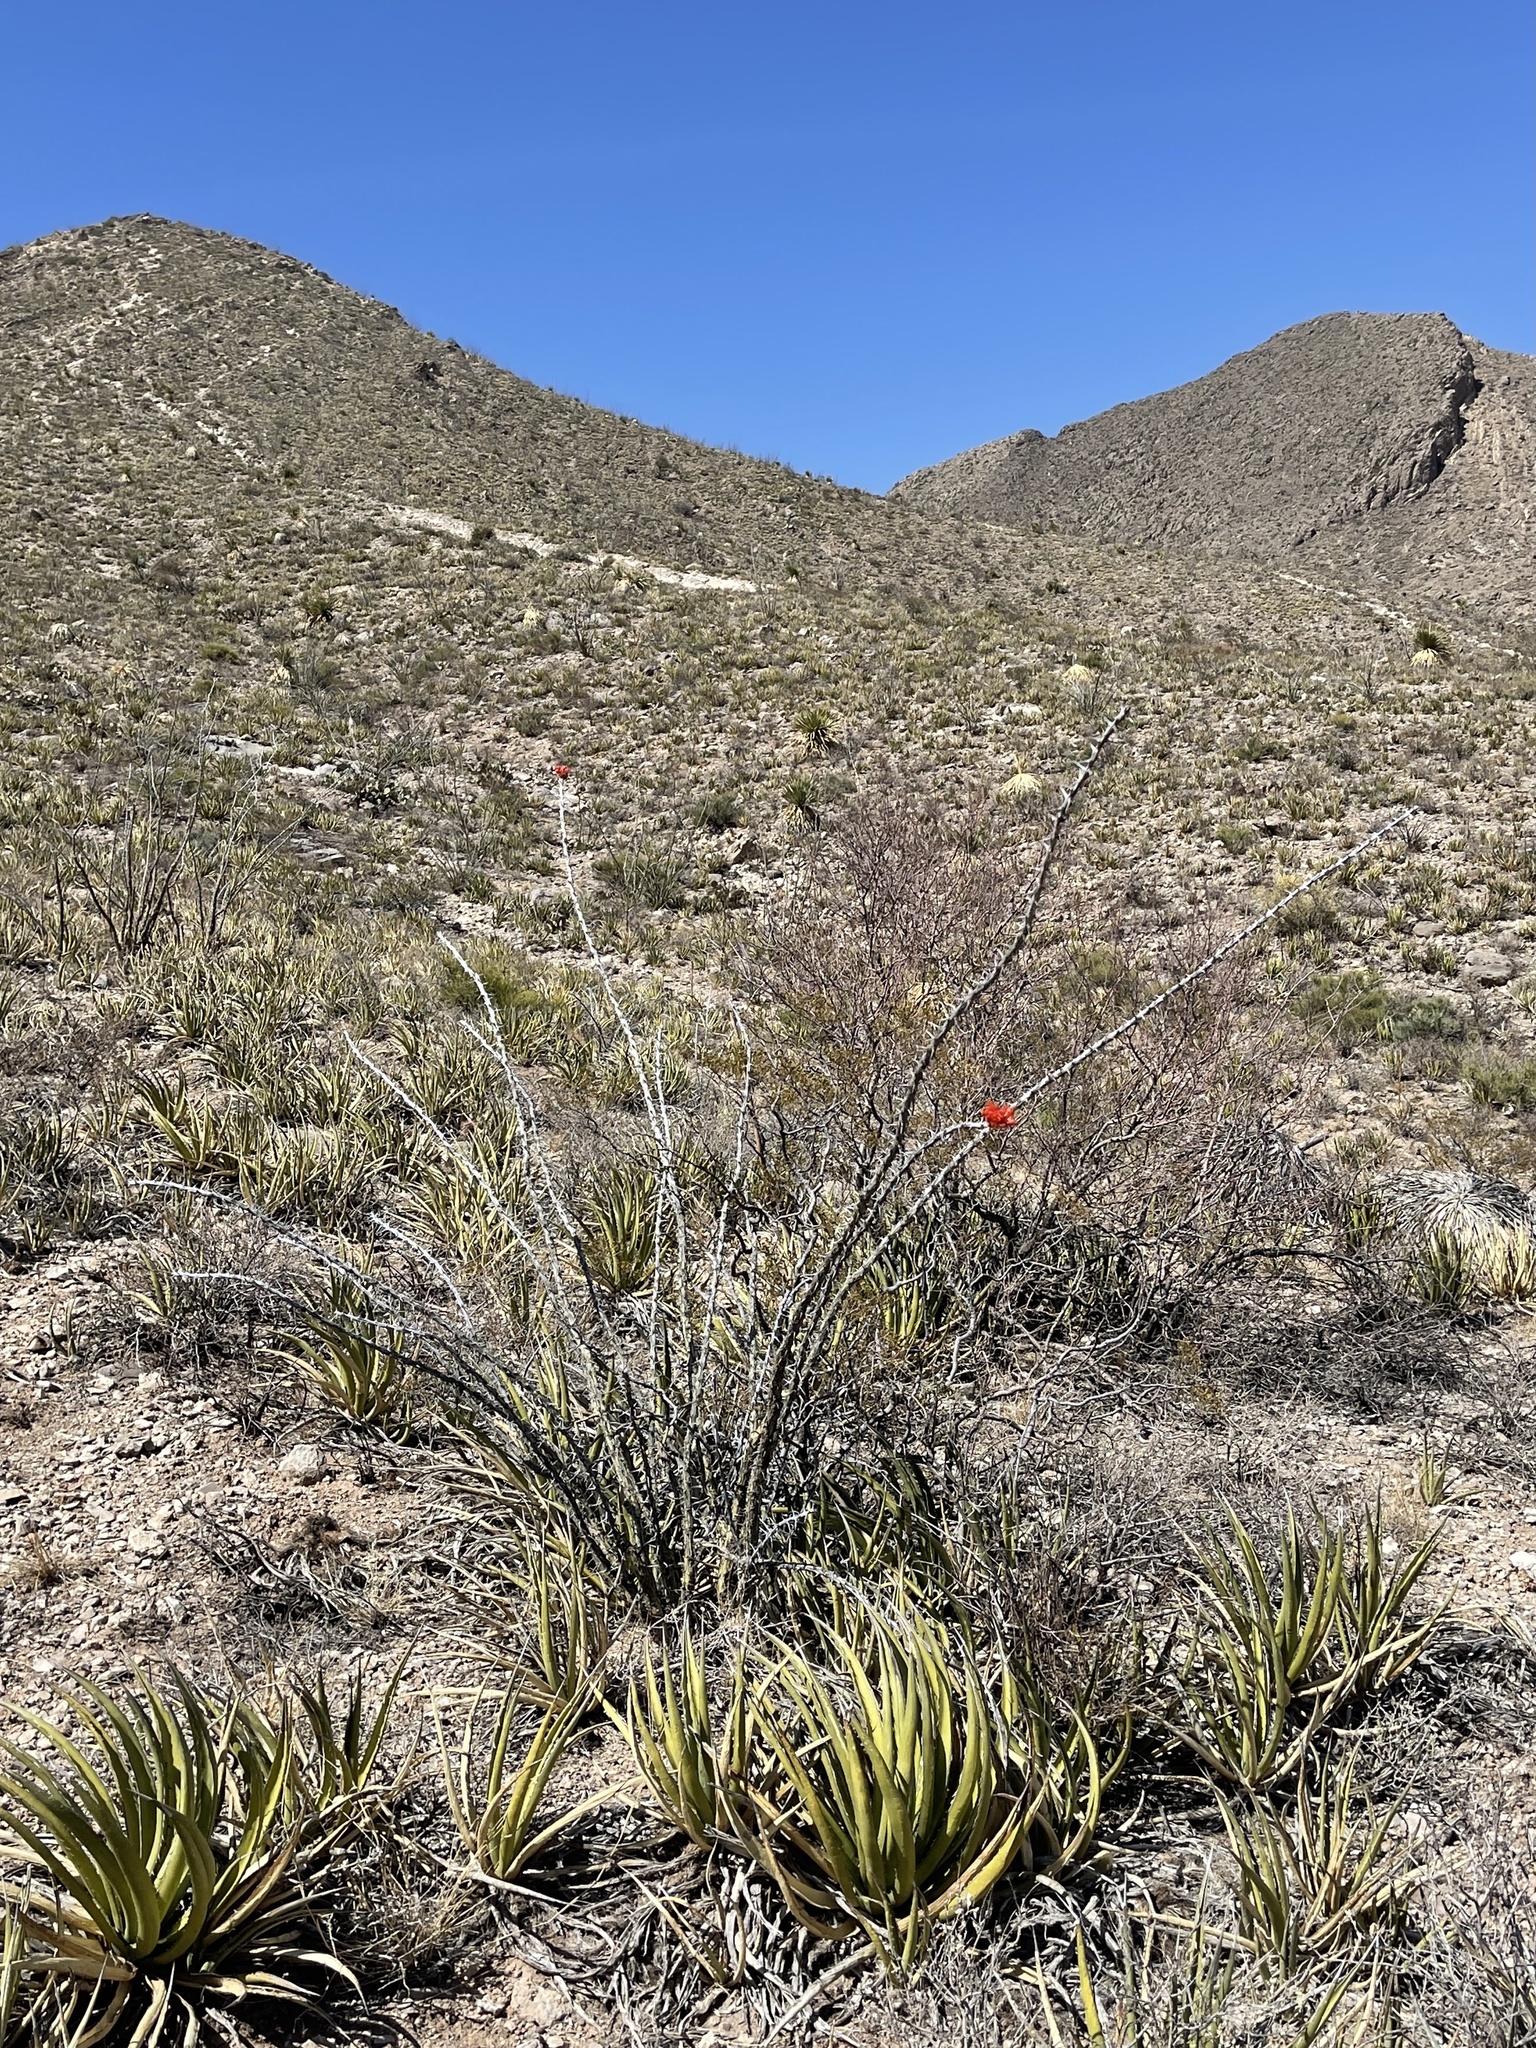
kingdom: Plantae
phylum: Tracheophyta
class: Magnoliopsida
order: Ericales
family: Fouquieriaceae
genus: Fouquieria
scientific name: Fouquieria splendens
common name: Vine-cactus
